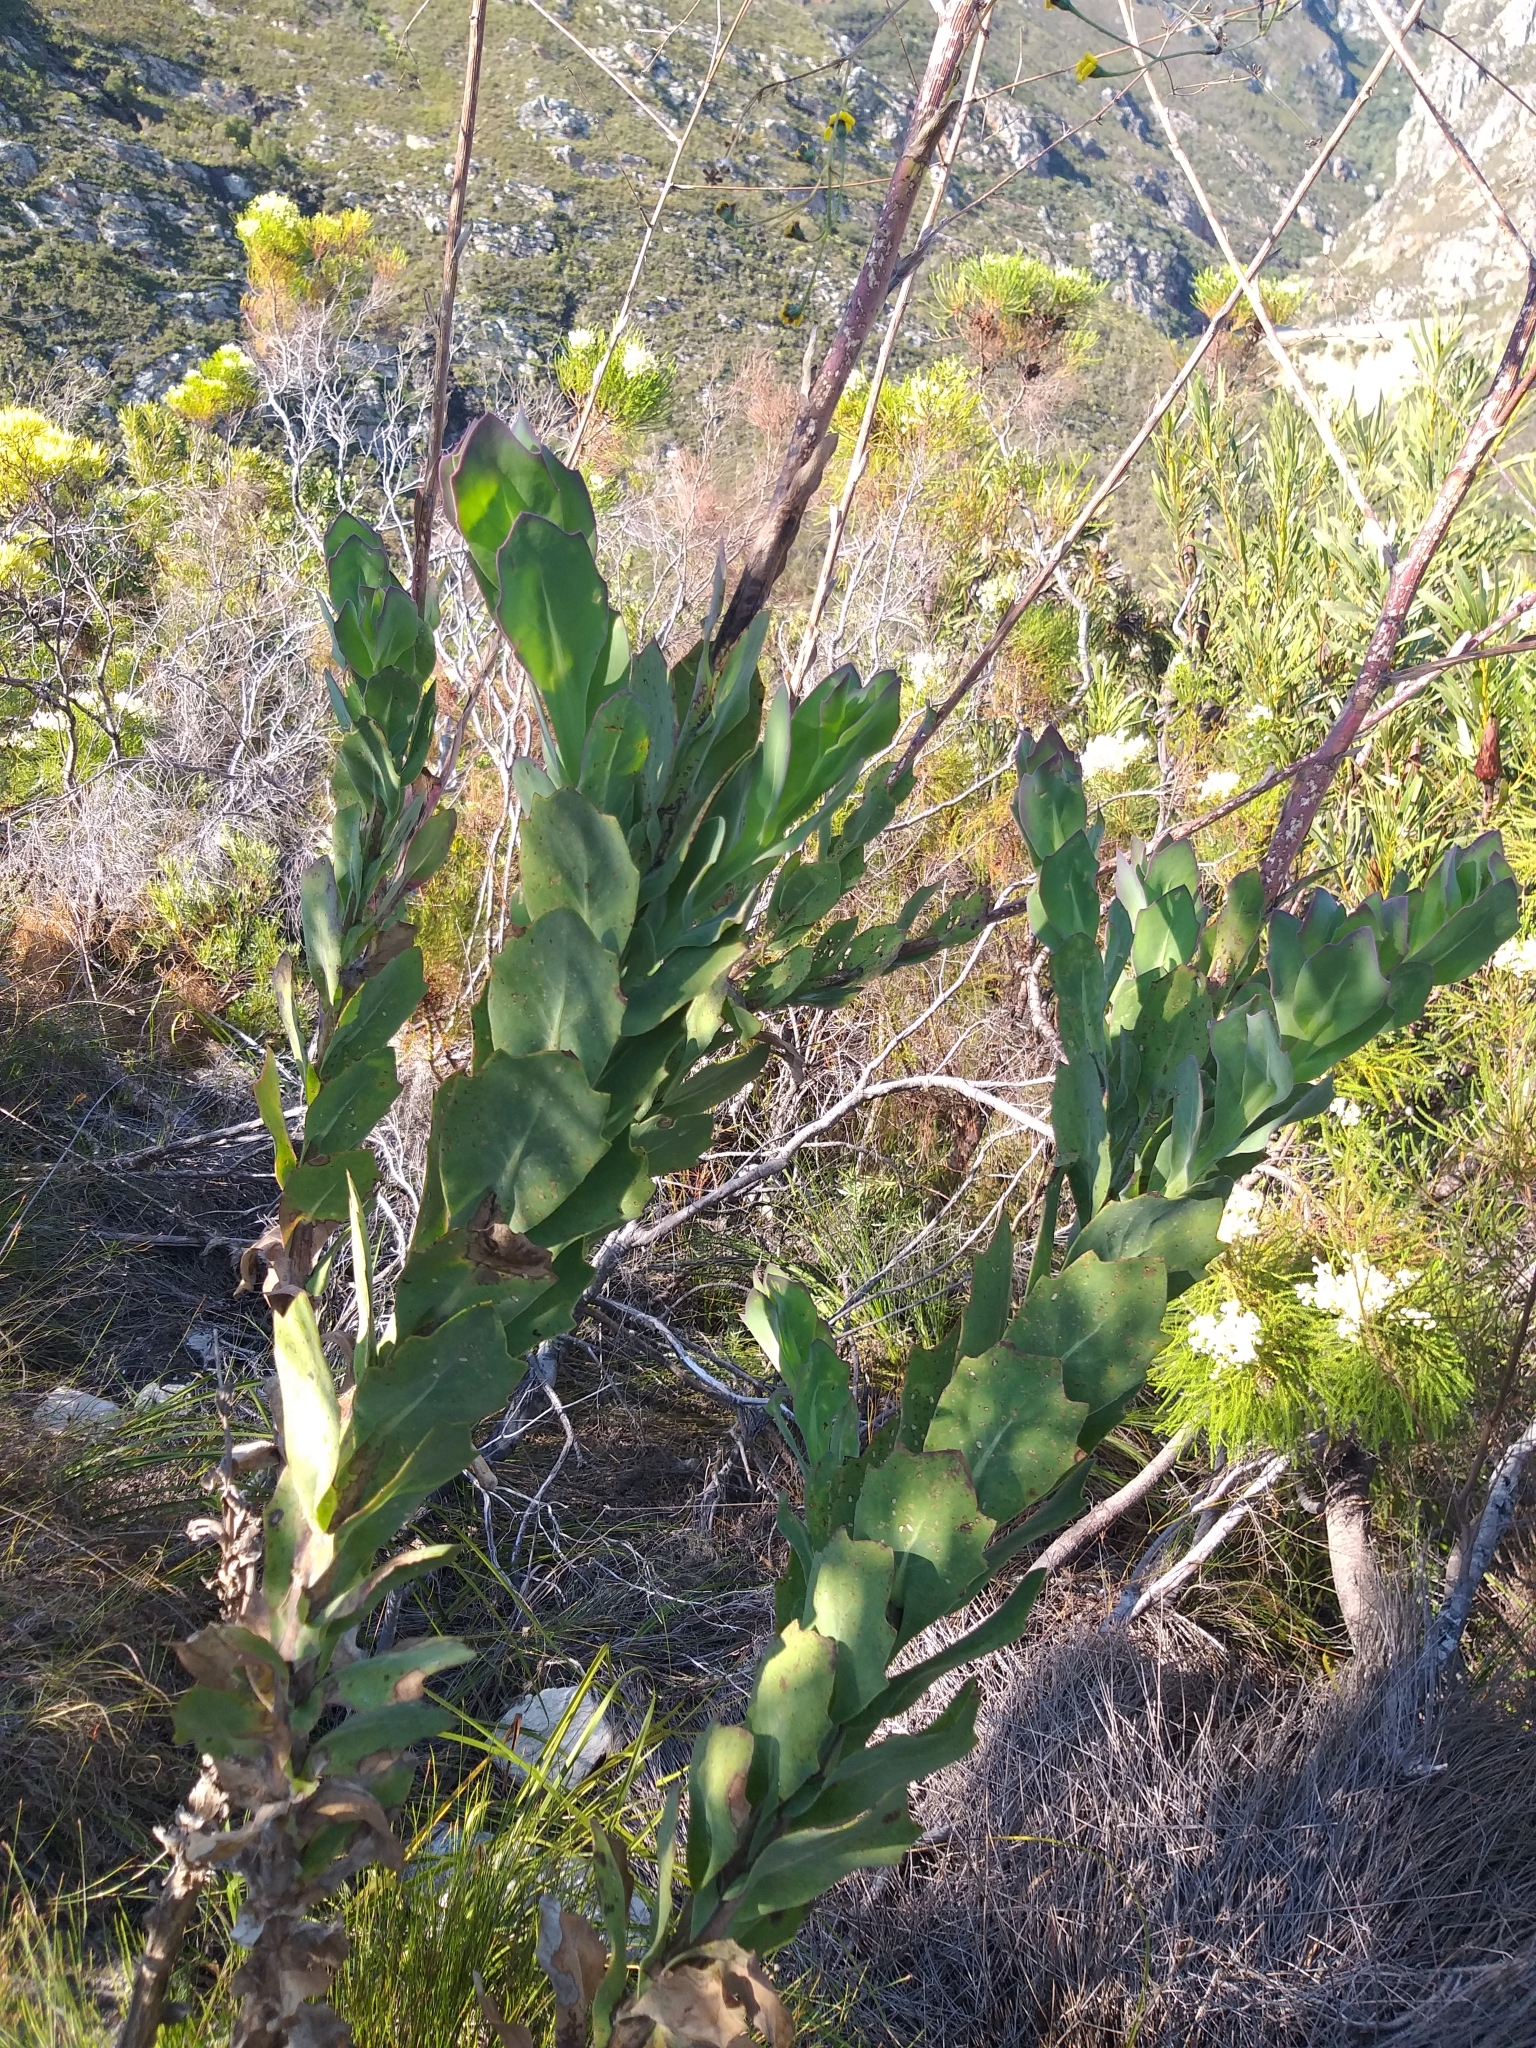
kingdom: Plantae
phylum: Tracheophyta
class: Magnoliopsida
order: Asterales
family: Asteraceae
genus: Othonna
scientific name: Othonna quinquedentata
